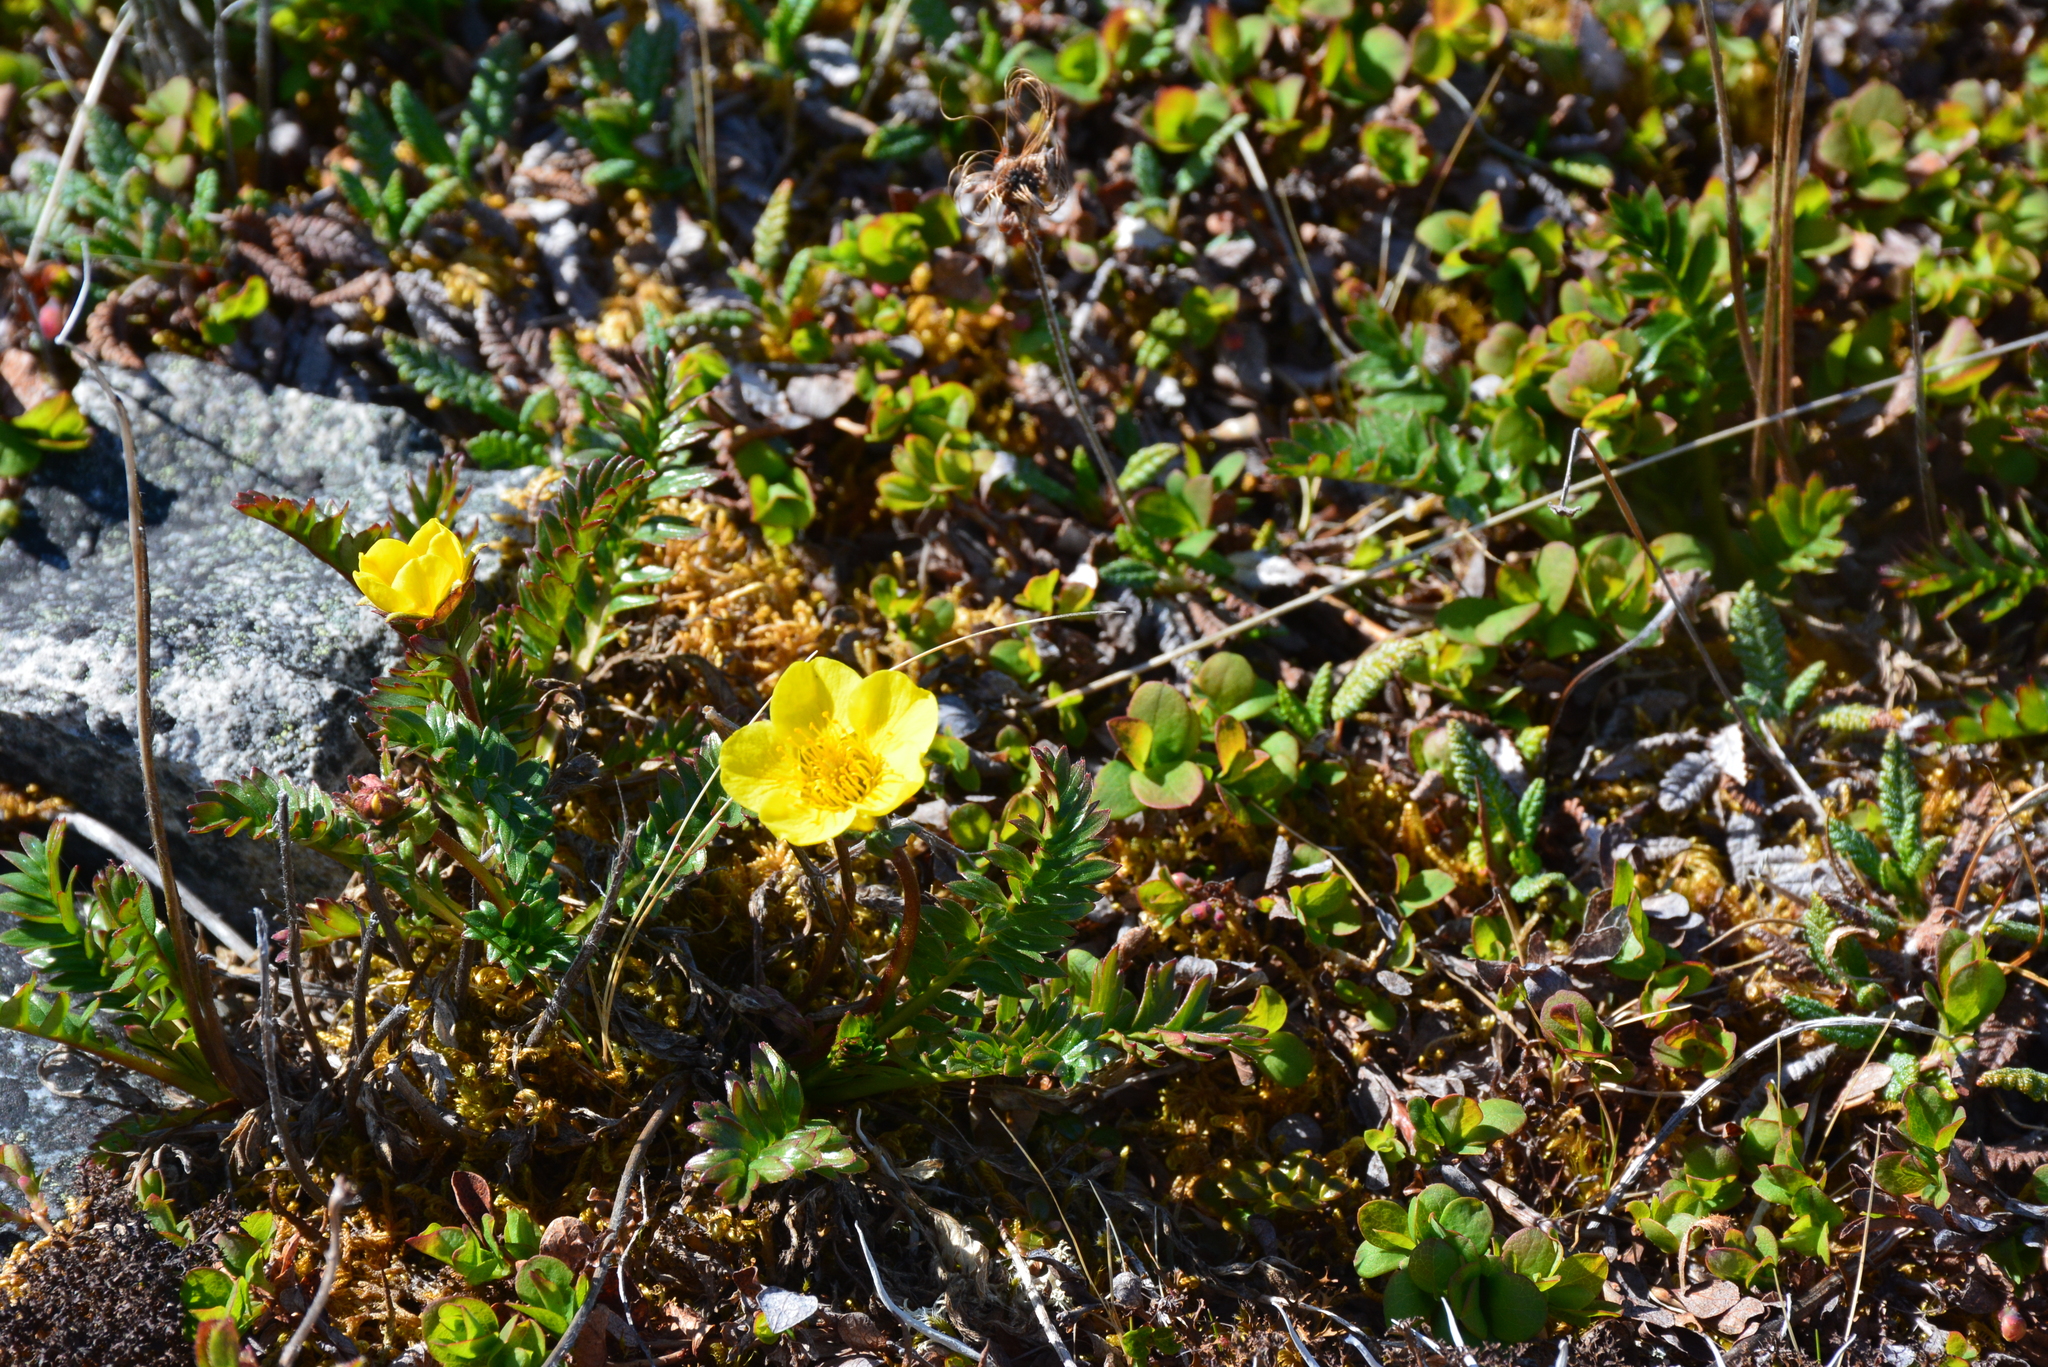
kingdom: Plantae
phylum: Tracheophyta
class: Magnoliopsida
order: Rosales
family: Rosaceae
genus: Geum
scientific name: Geum rossii
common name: Alpine avens
